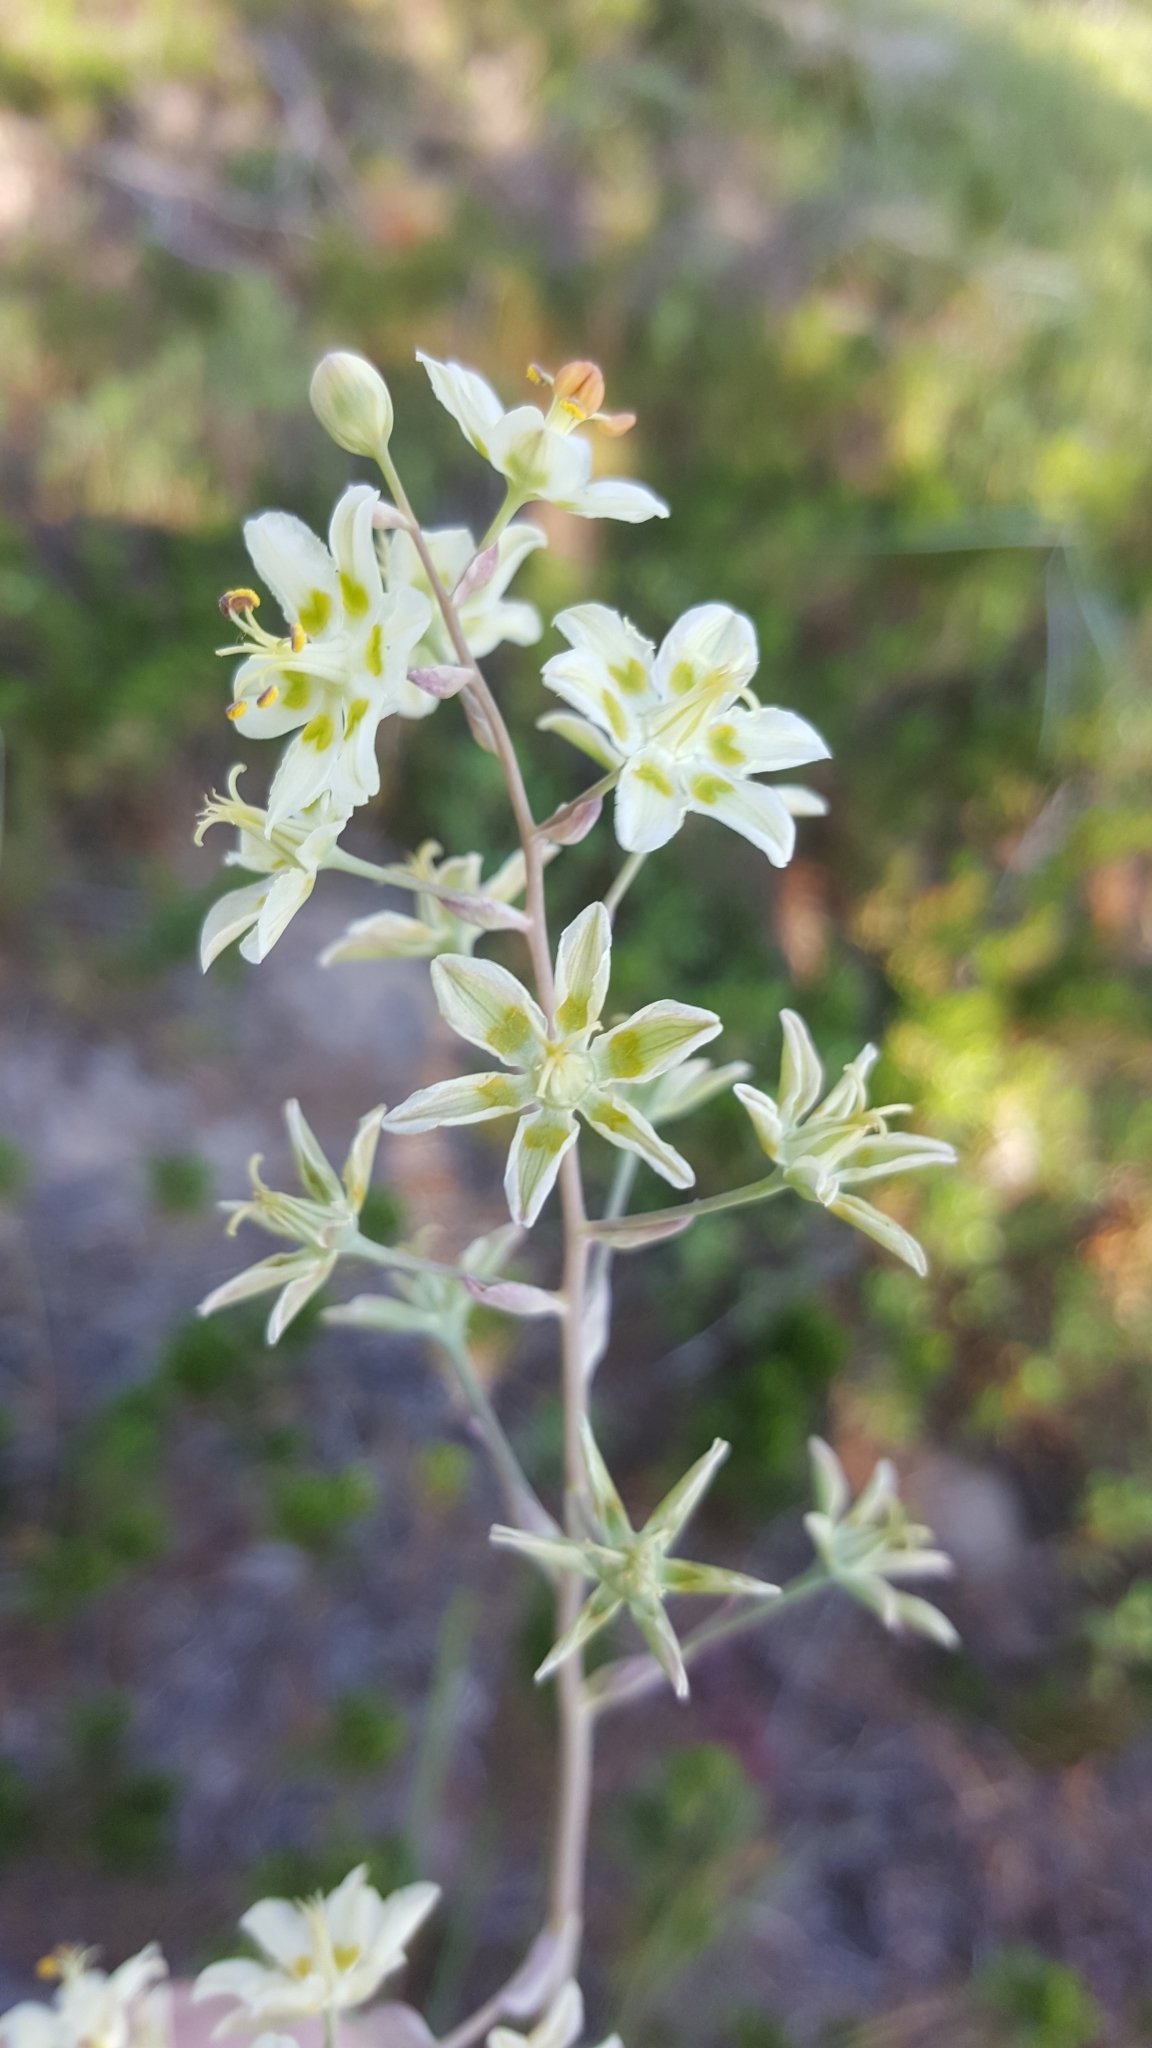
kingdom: Plantae
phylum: Tracheophyta
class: Liliopsida
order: Liliales
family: Melanthiaceae
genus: Anticlea
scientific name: Anticlea elegans
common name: Mountain death camas
